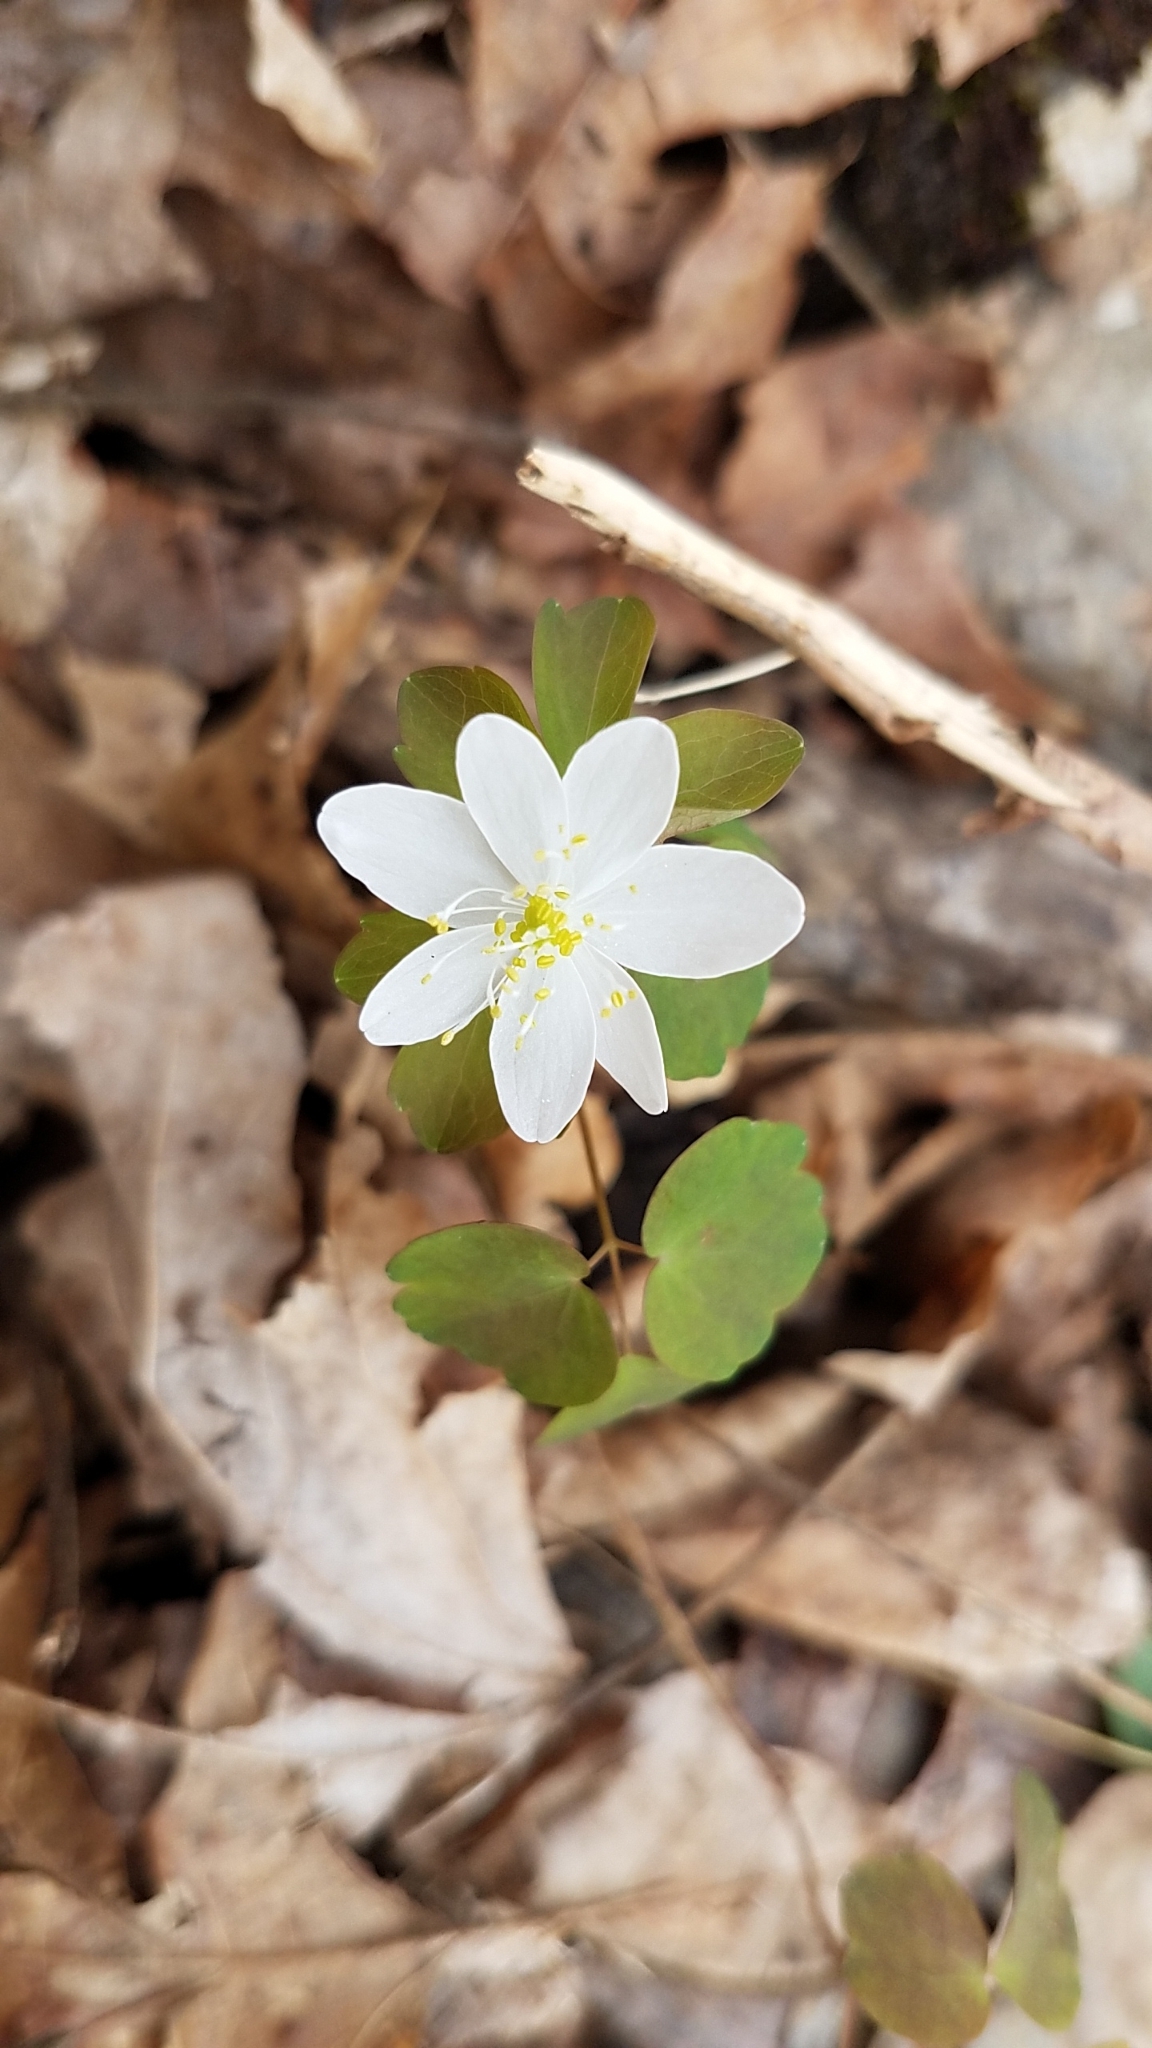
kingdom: Plantae
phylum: Tracheophyta
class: Magnoliopsida
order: Ranunculales
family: Ranunculaceae
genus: Thalictrum
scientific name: Thalictrum thalictroides
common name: Rue-anemone
